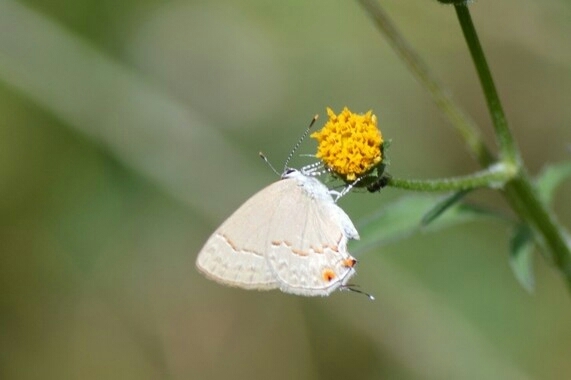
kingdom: Animalia
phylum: Arthropoda
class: Insecta
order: Lepidoptera
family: Lycaenidae
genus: Thecla
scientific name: Thecla rufofusca
